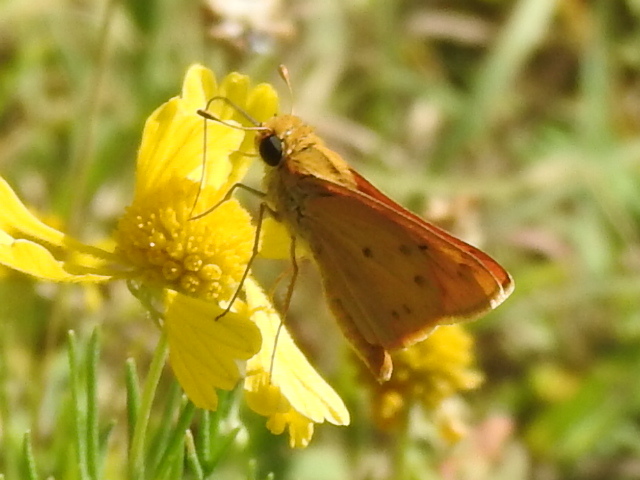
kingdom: Animalia
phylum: Arthropoda
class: Insecta
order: Lepidoptera
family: Hesperiidae
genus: Hylephila
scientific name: Hylephila phyleus
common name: Fiery skipper
